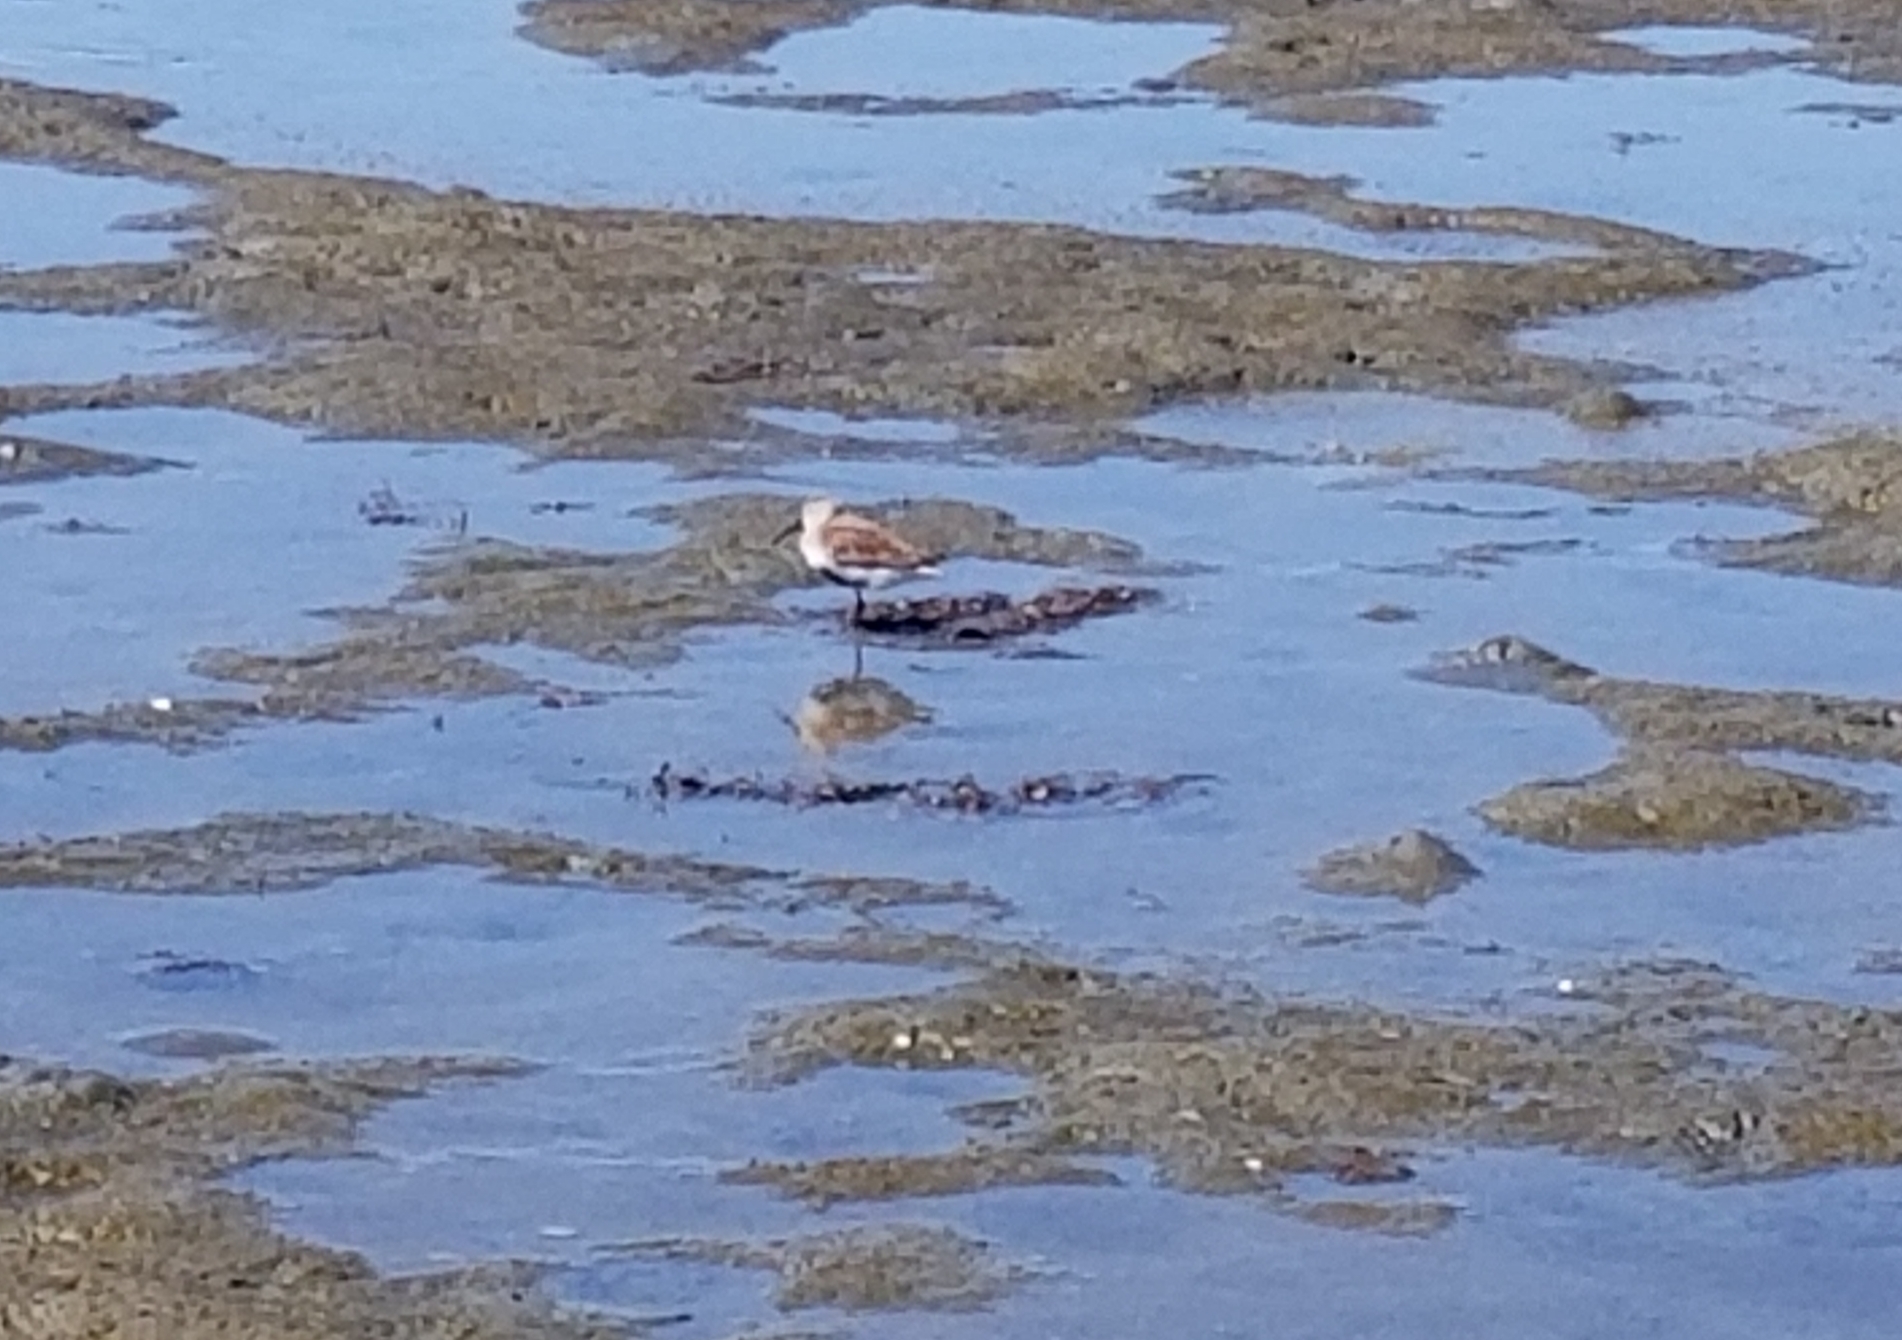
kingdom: Animalia
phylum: Chordata
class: Aves
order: Charadriiformes
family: Scolopacidae
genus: Calidris
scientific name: Calidris alpina
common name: Dunlin
